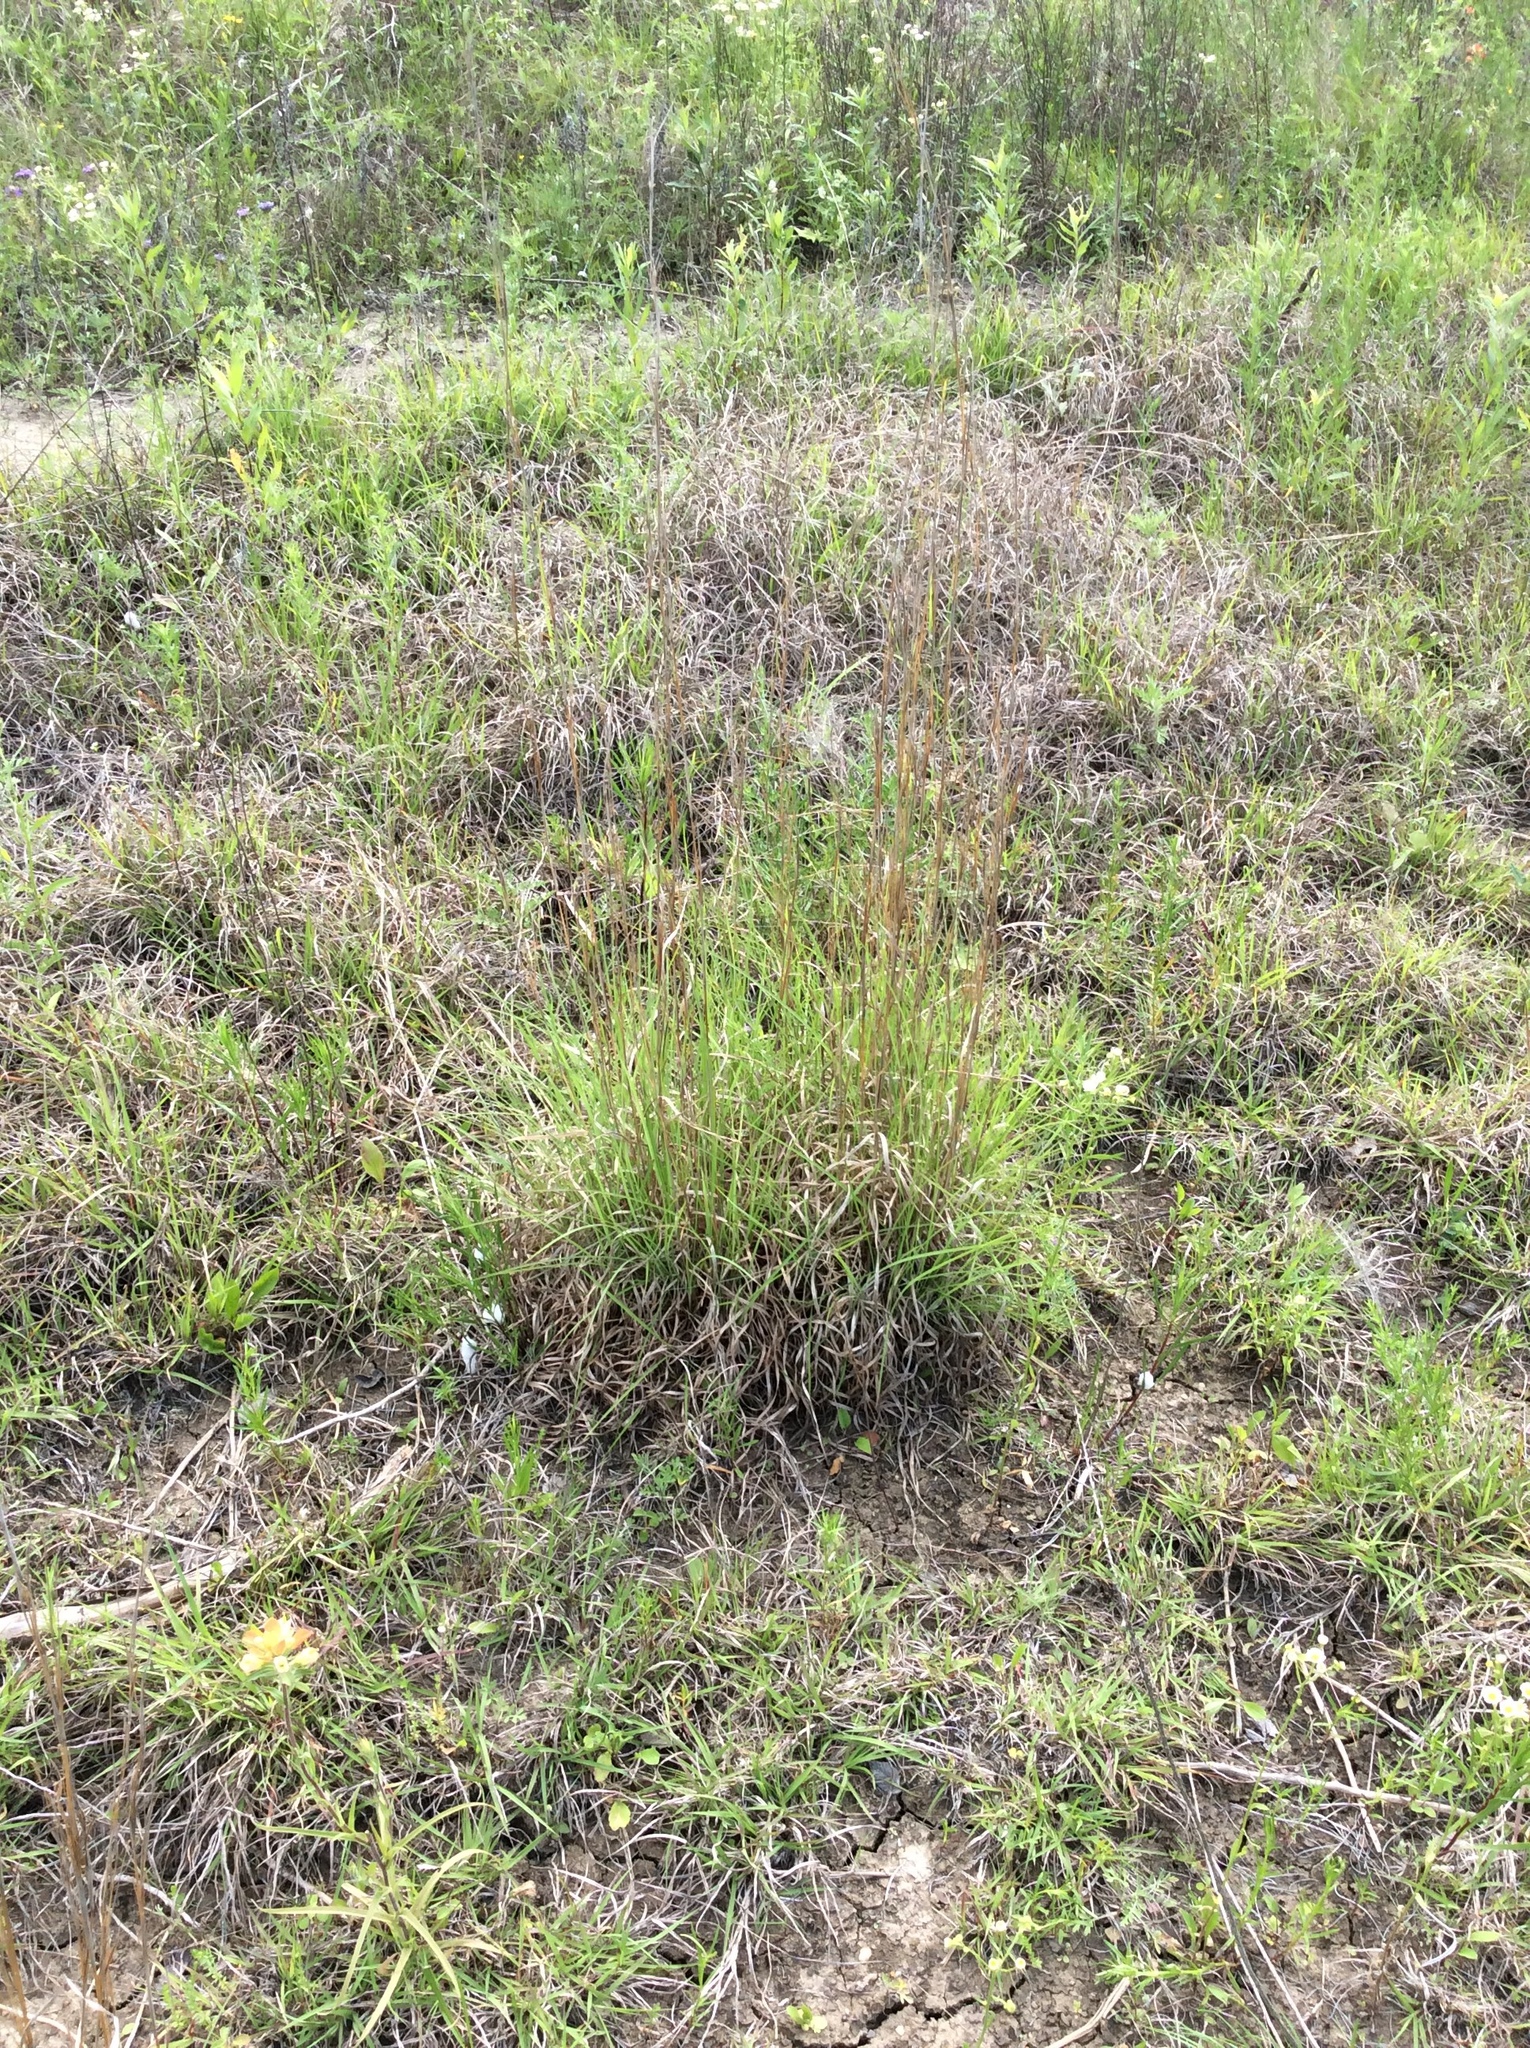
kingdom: Plantae
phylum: Tracheophyta
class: Liliopsida
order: Poales
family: Poaceae
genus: Schizachyrium
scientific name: Schizachyrium scoparium
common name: Little bluestem
